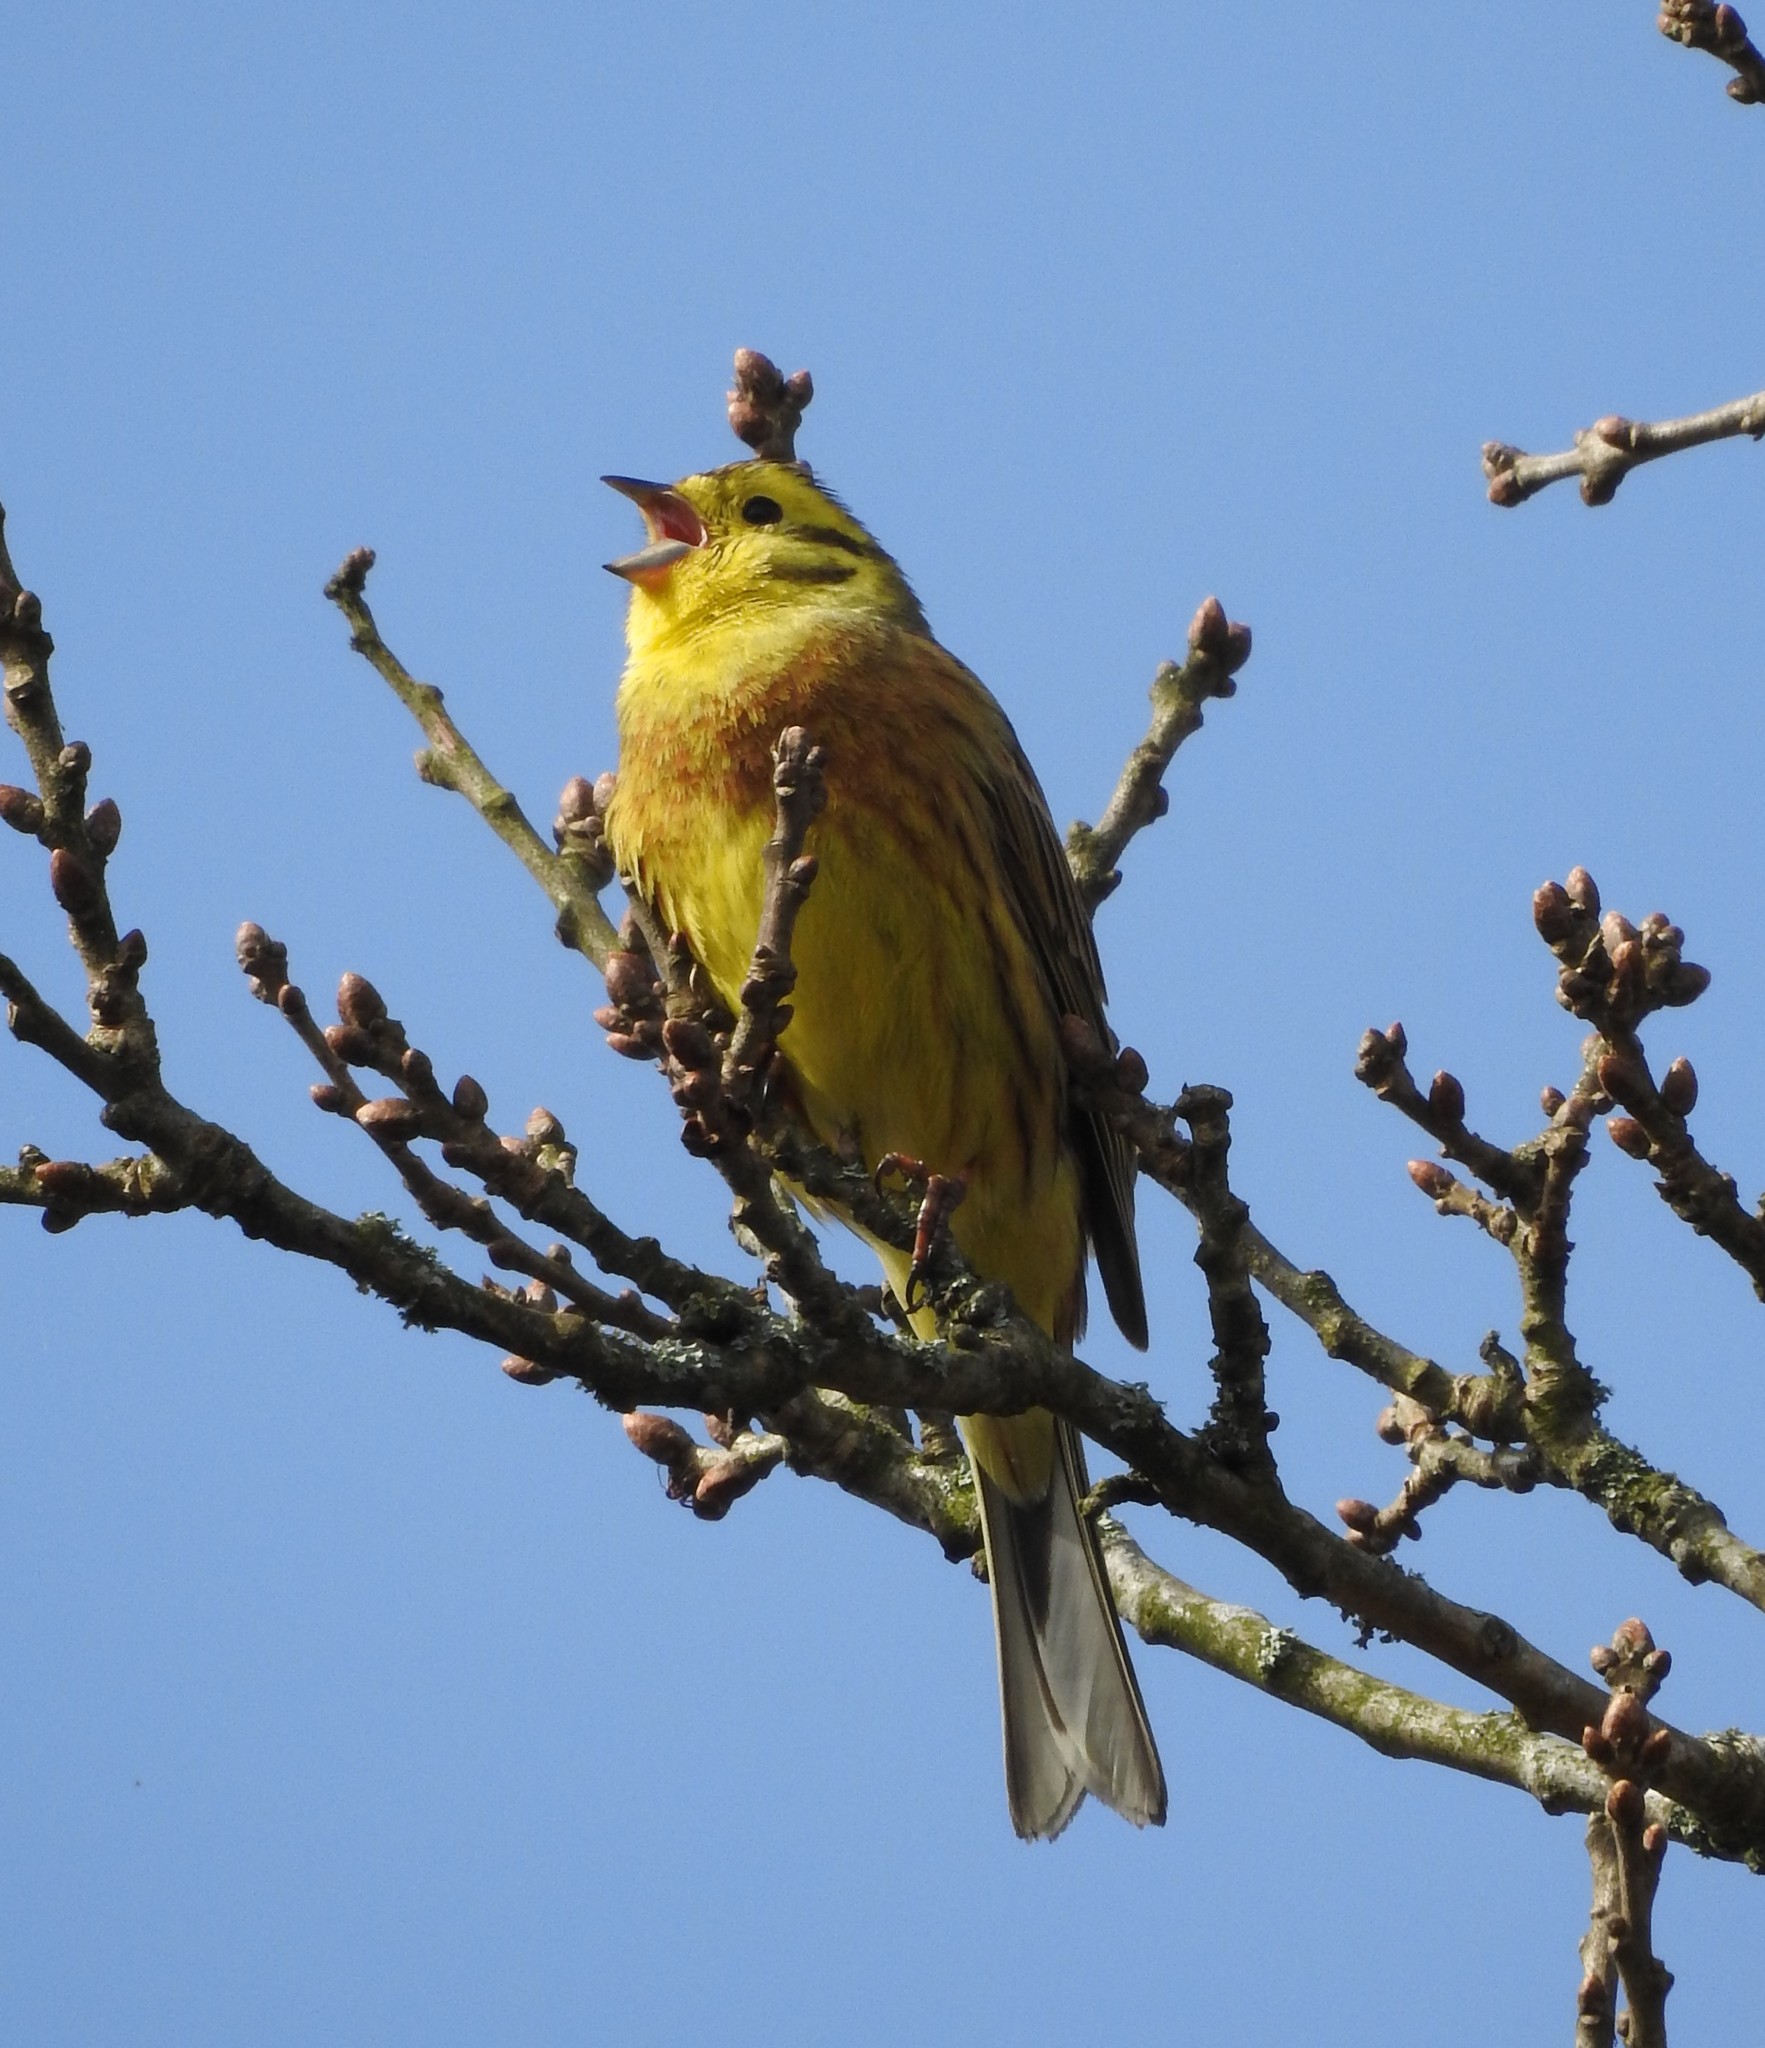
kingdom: Animalia
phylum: Chordata
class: Aves
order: Passeriformes
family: Emberizidae
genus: Emberiza
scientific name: Emberiza citrinella
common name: Yellowhammer
